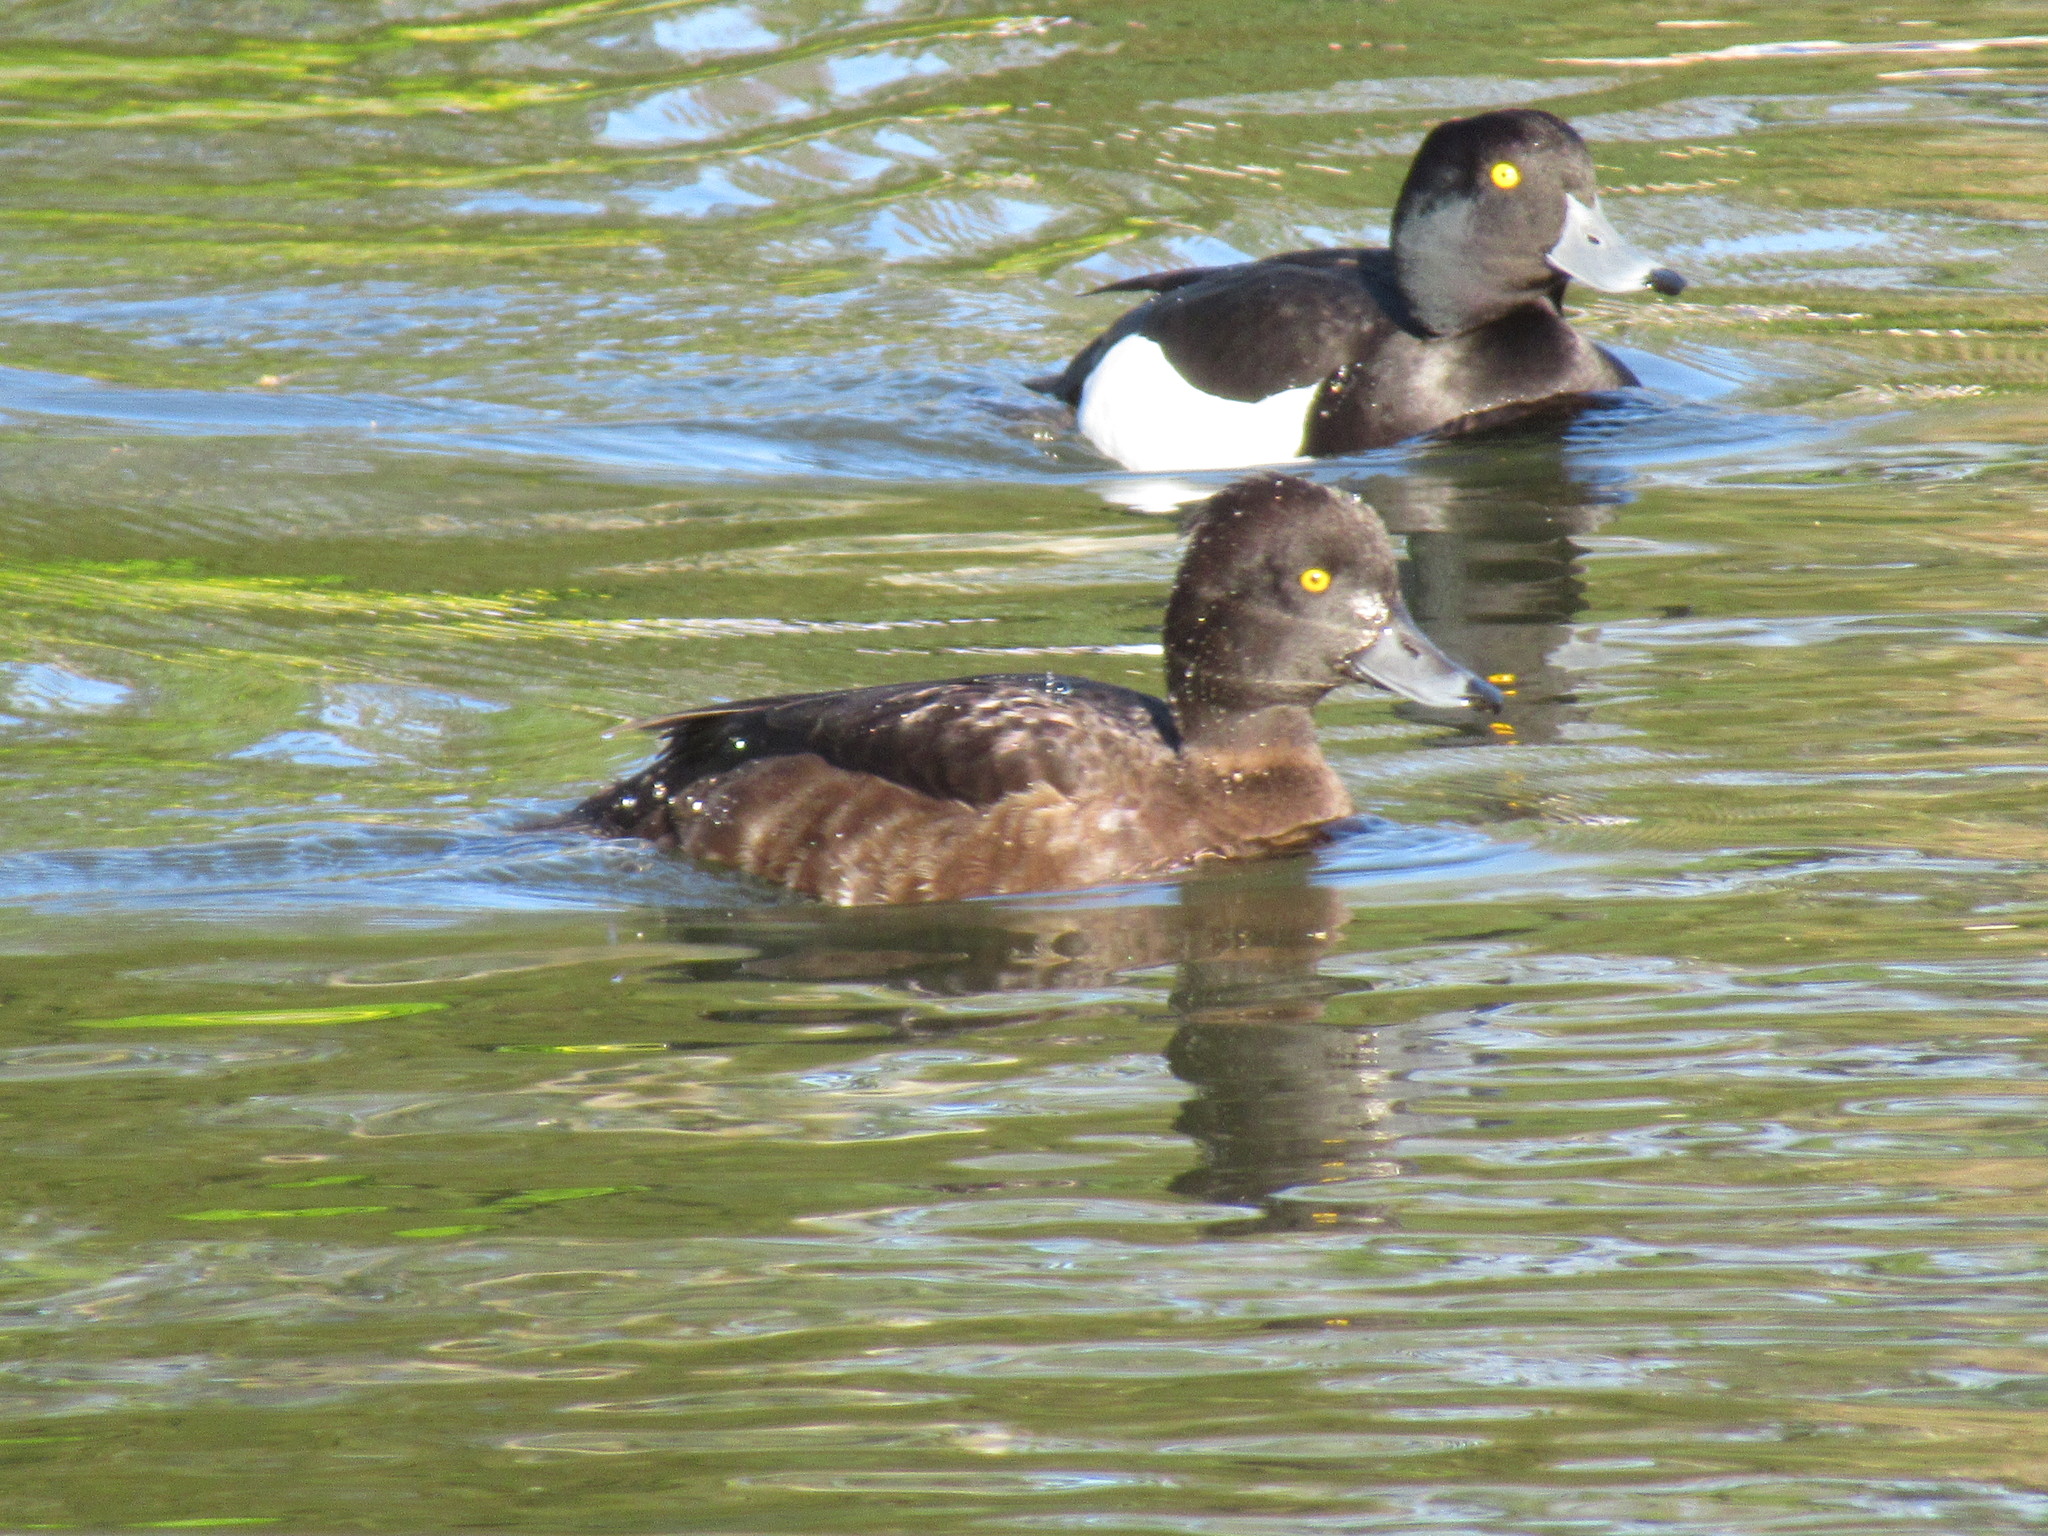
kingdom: Animalia
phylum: Chordata
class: Aves
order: Anseriformes
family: Anatidae
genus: Aythya
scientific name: Aythya fuligula
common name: Tufted duck
